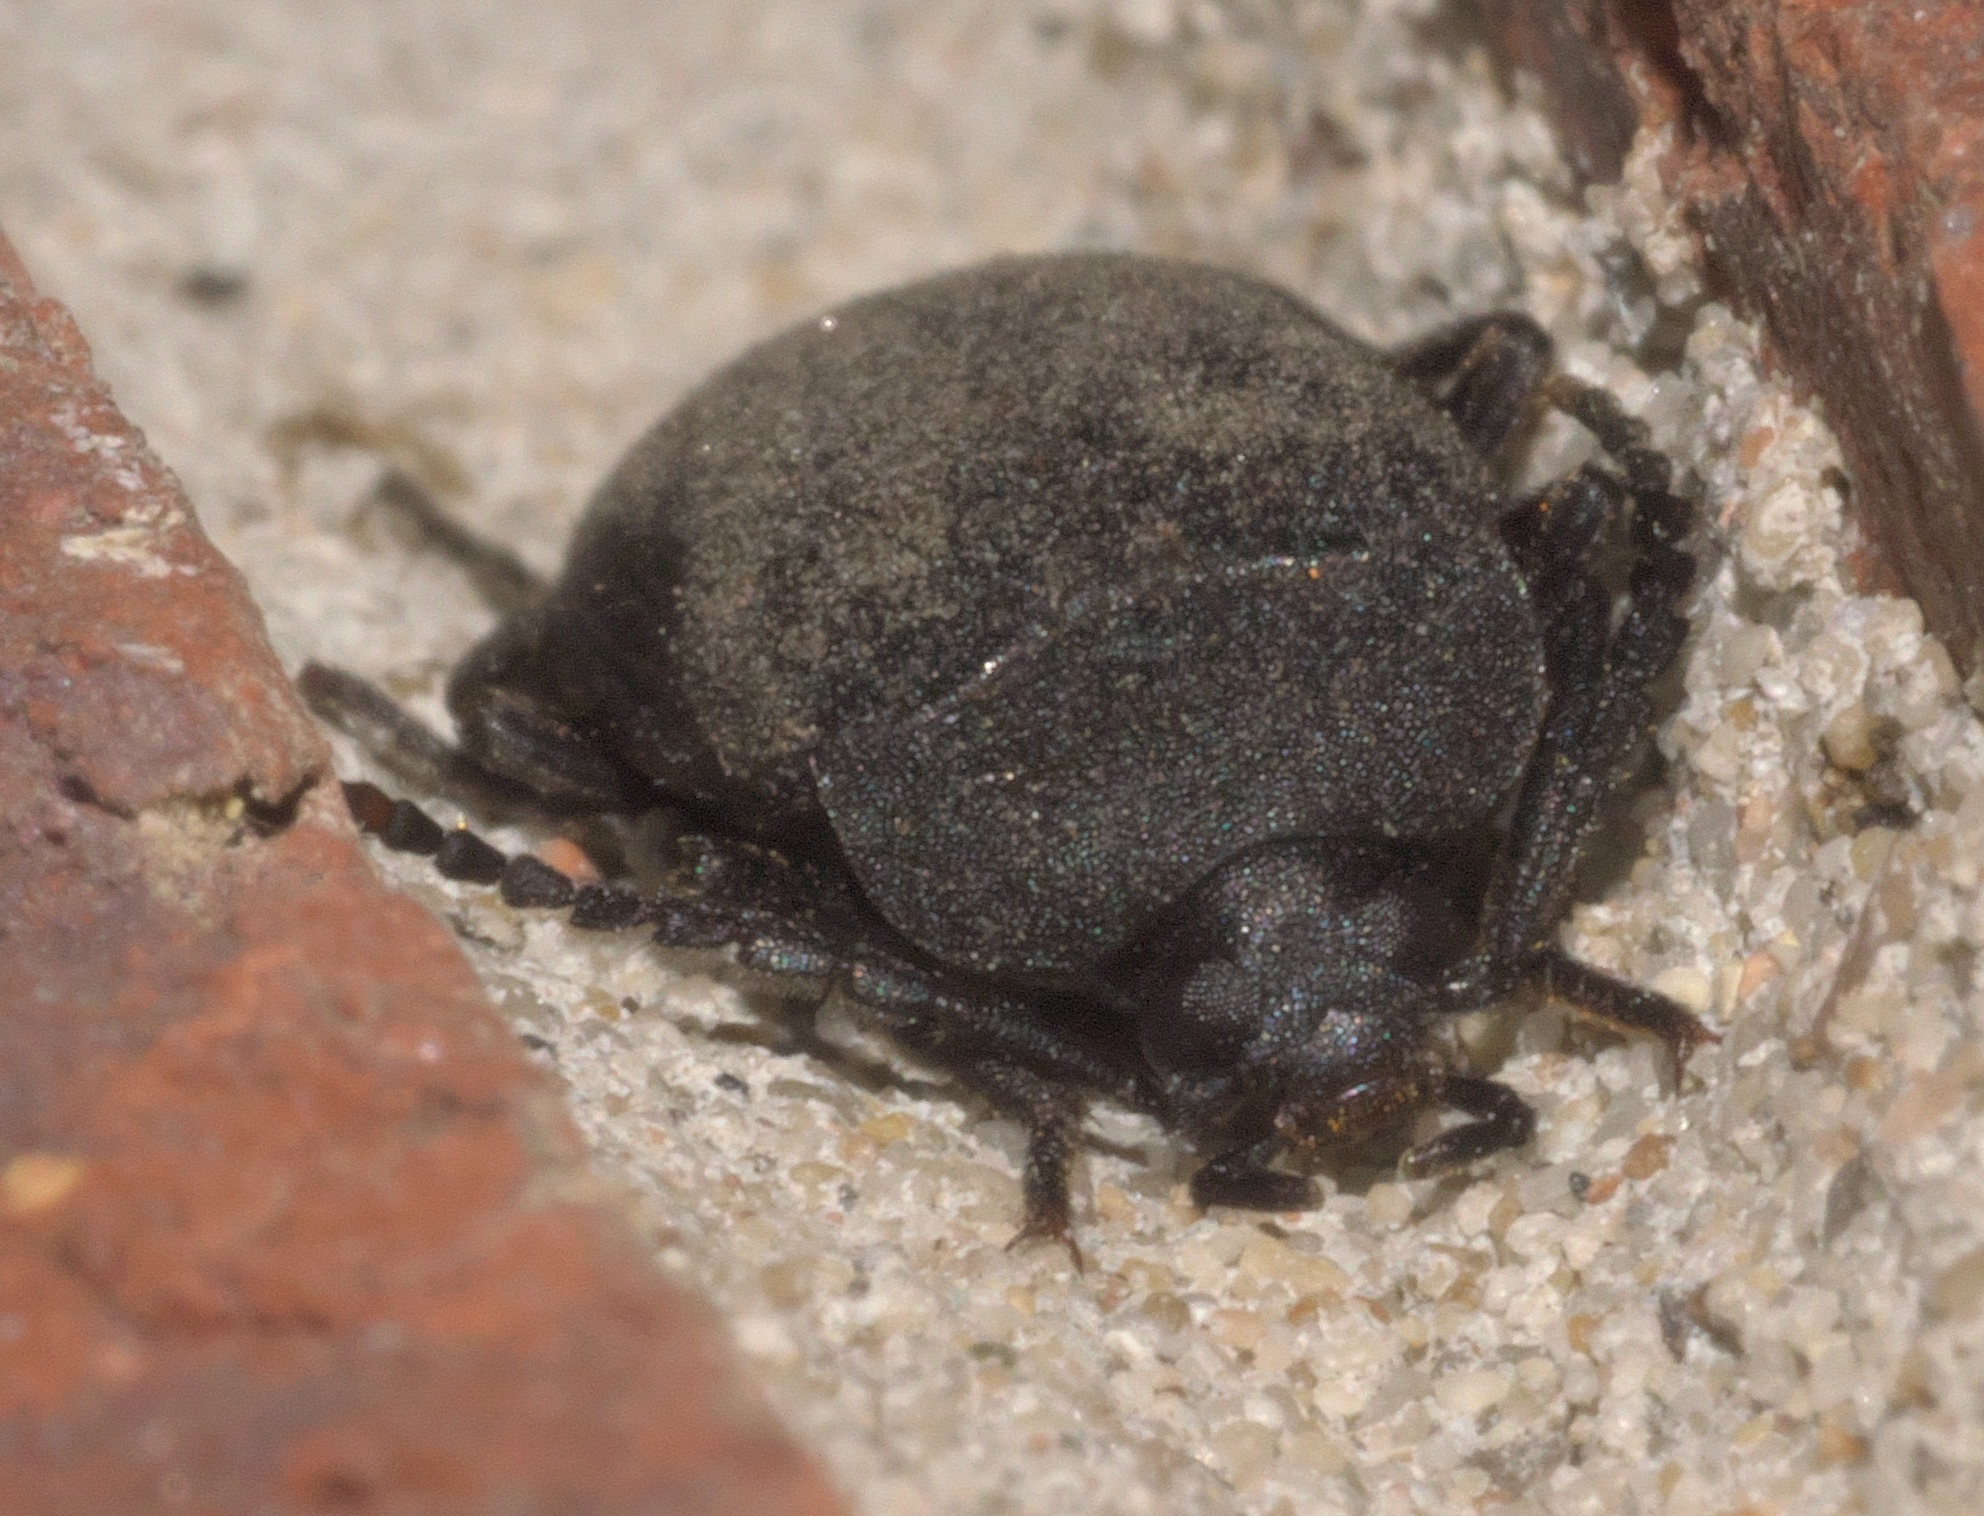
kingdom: Animalia
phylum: Arthropoda
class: Insecta
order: Coleoptera
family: Tetratomidae
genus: Penthe
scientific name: Penthe pimelia
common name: Velvety bark beetle
